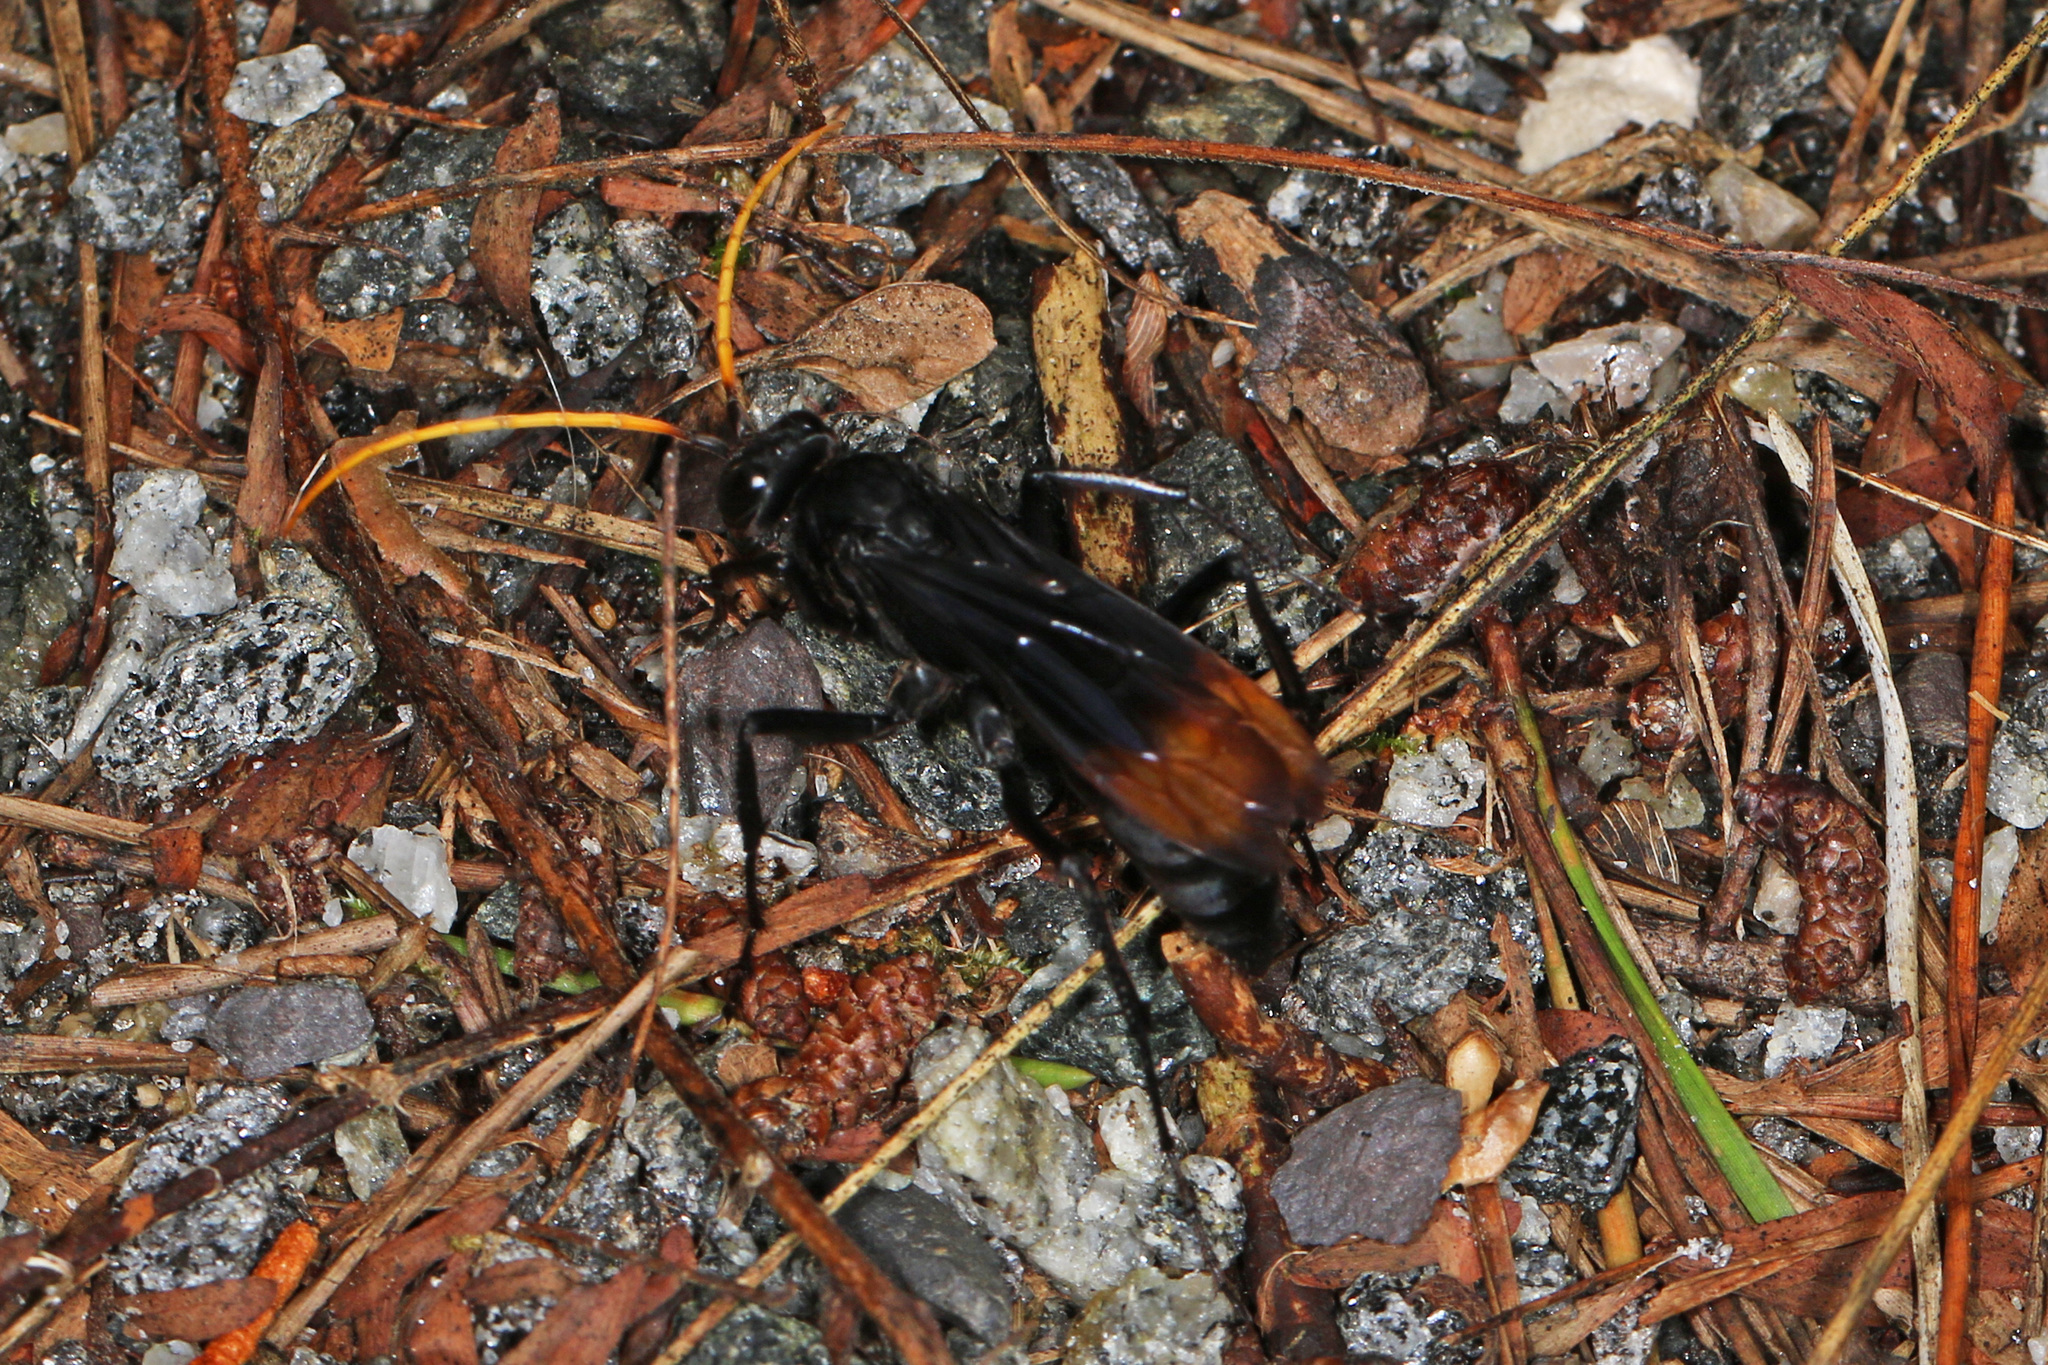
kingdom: Animalia
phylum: Arthropoda
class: Insecta
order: Hymenoptera
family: Pompilidae
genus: Entypus
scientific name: Entypus unifasciatus
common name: Eastern tawny-horned spider wasp
